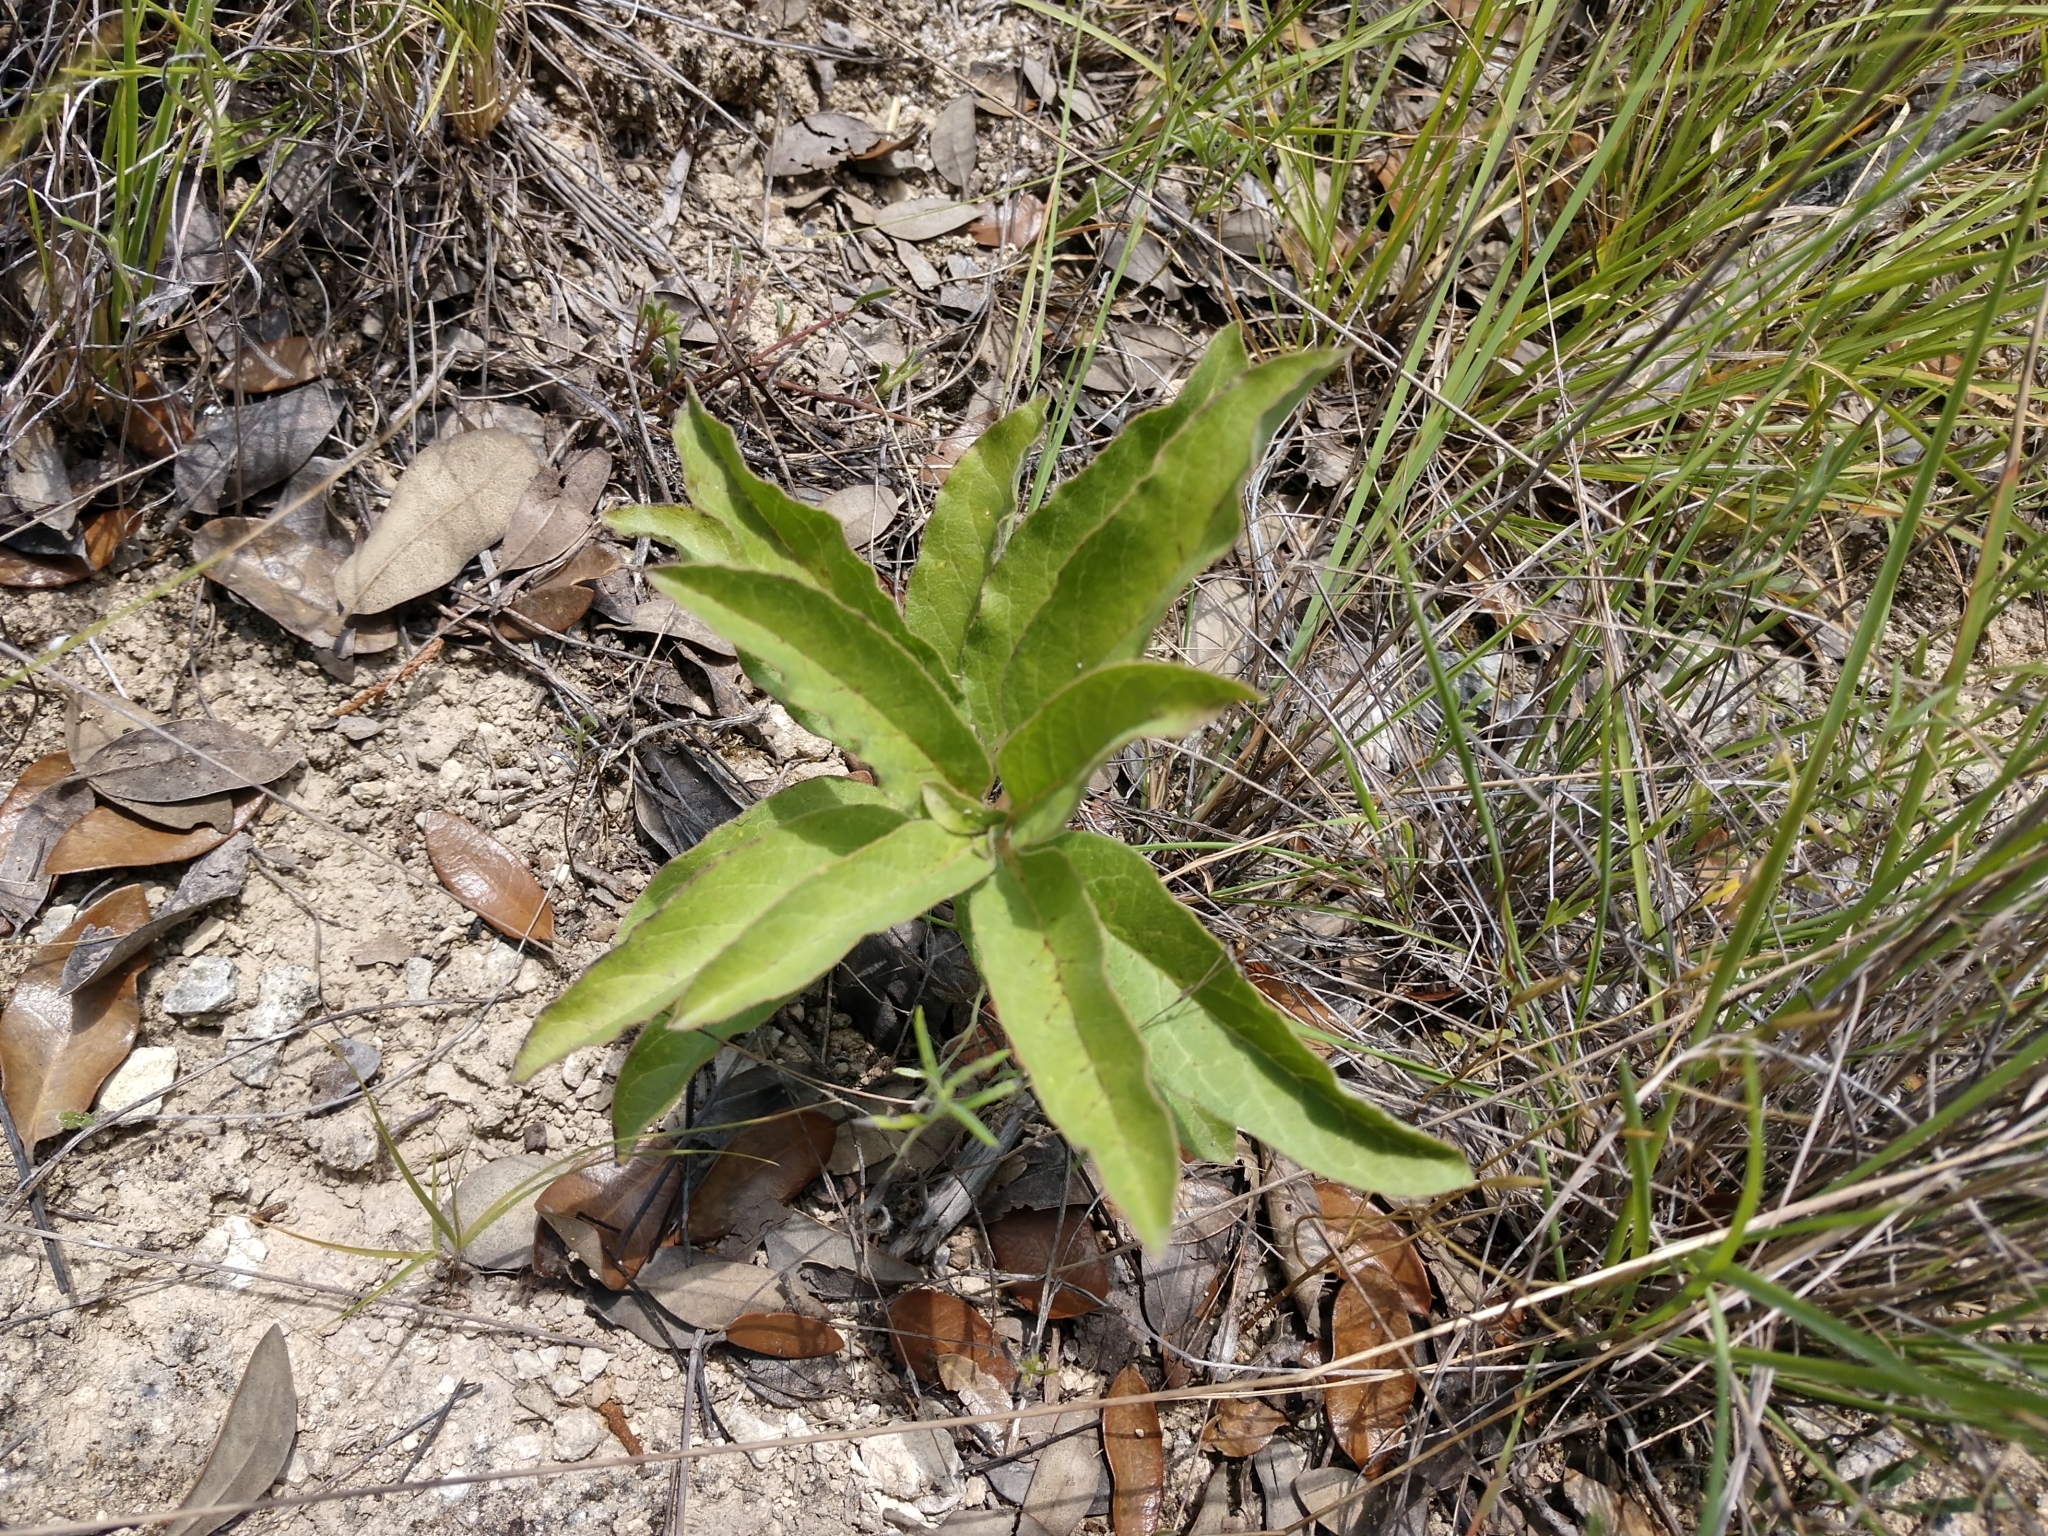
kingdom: Plantae
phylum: Tracheophyta
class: Magnoliopsida
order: Gentianales
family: Apocynaceae
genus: Asclepias
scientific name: Asclepias oenotheroides
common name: Zizotes milkweed
